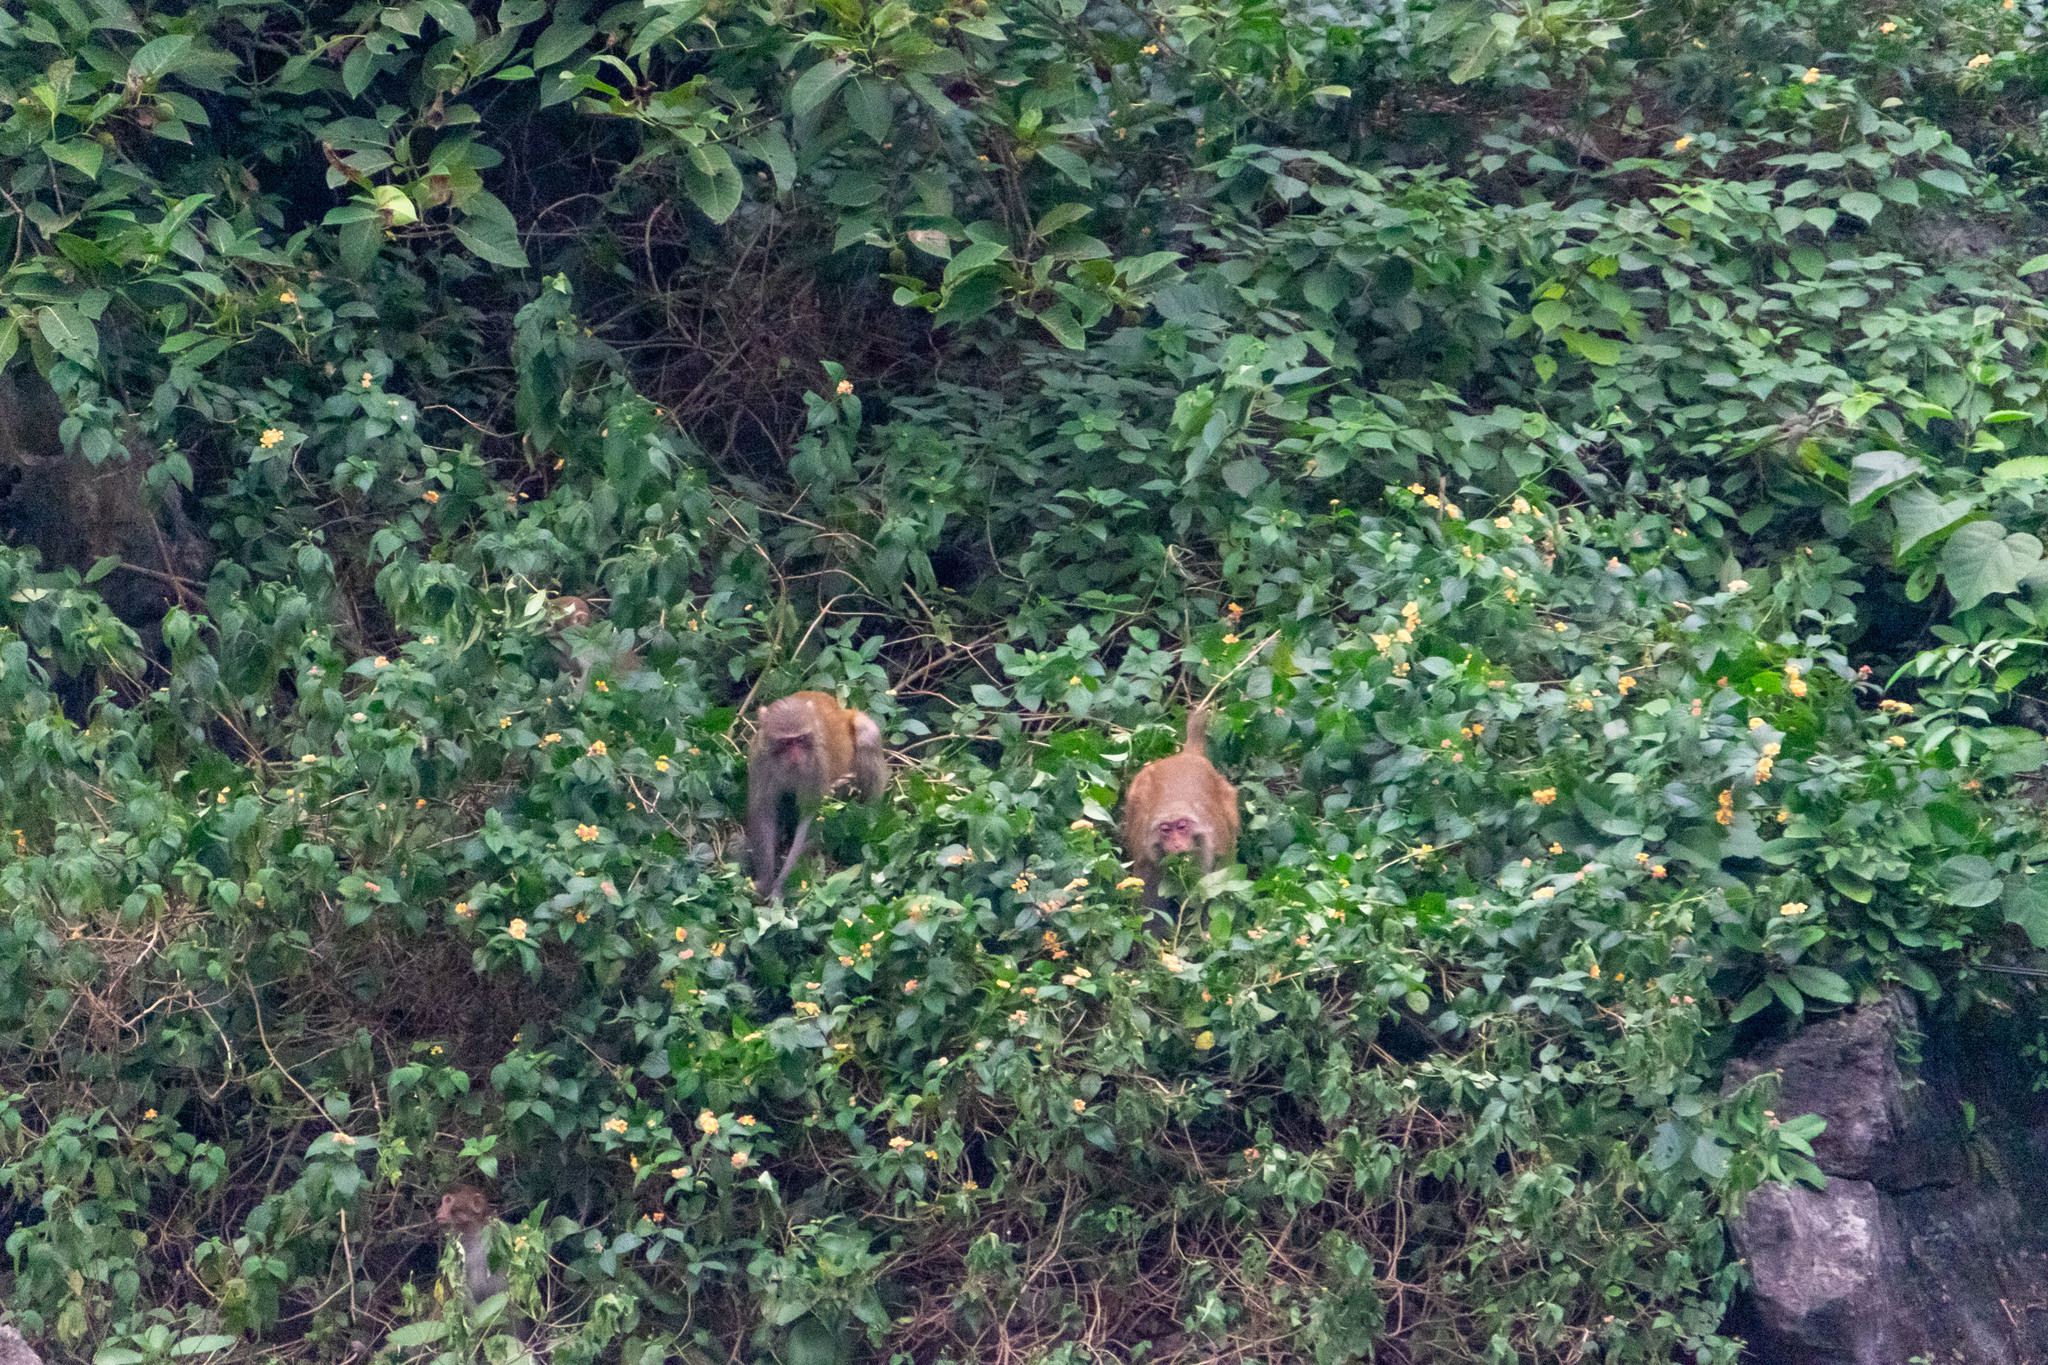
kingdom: Animalia
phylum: Chordata
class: Mammalia
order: Primates
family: Cercopithecidae
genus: Macaca
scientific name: Macaca mulatta
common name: Rhesus monkey
